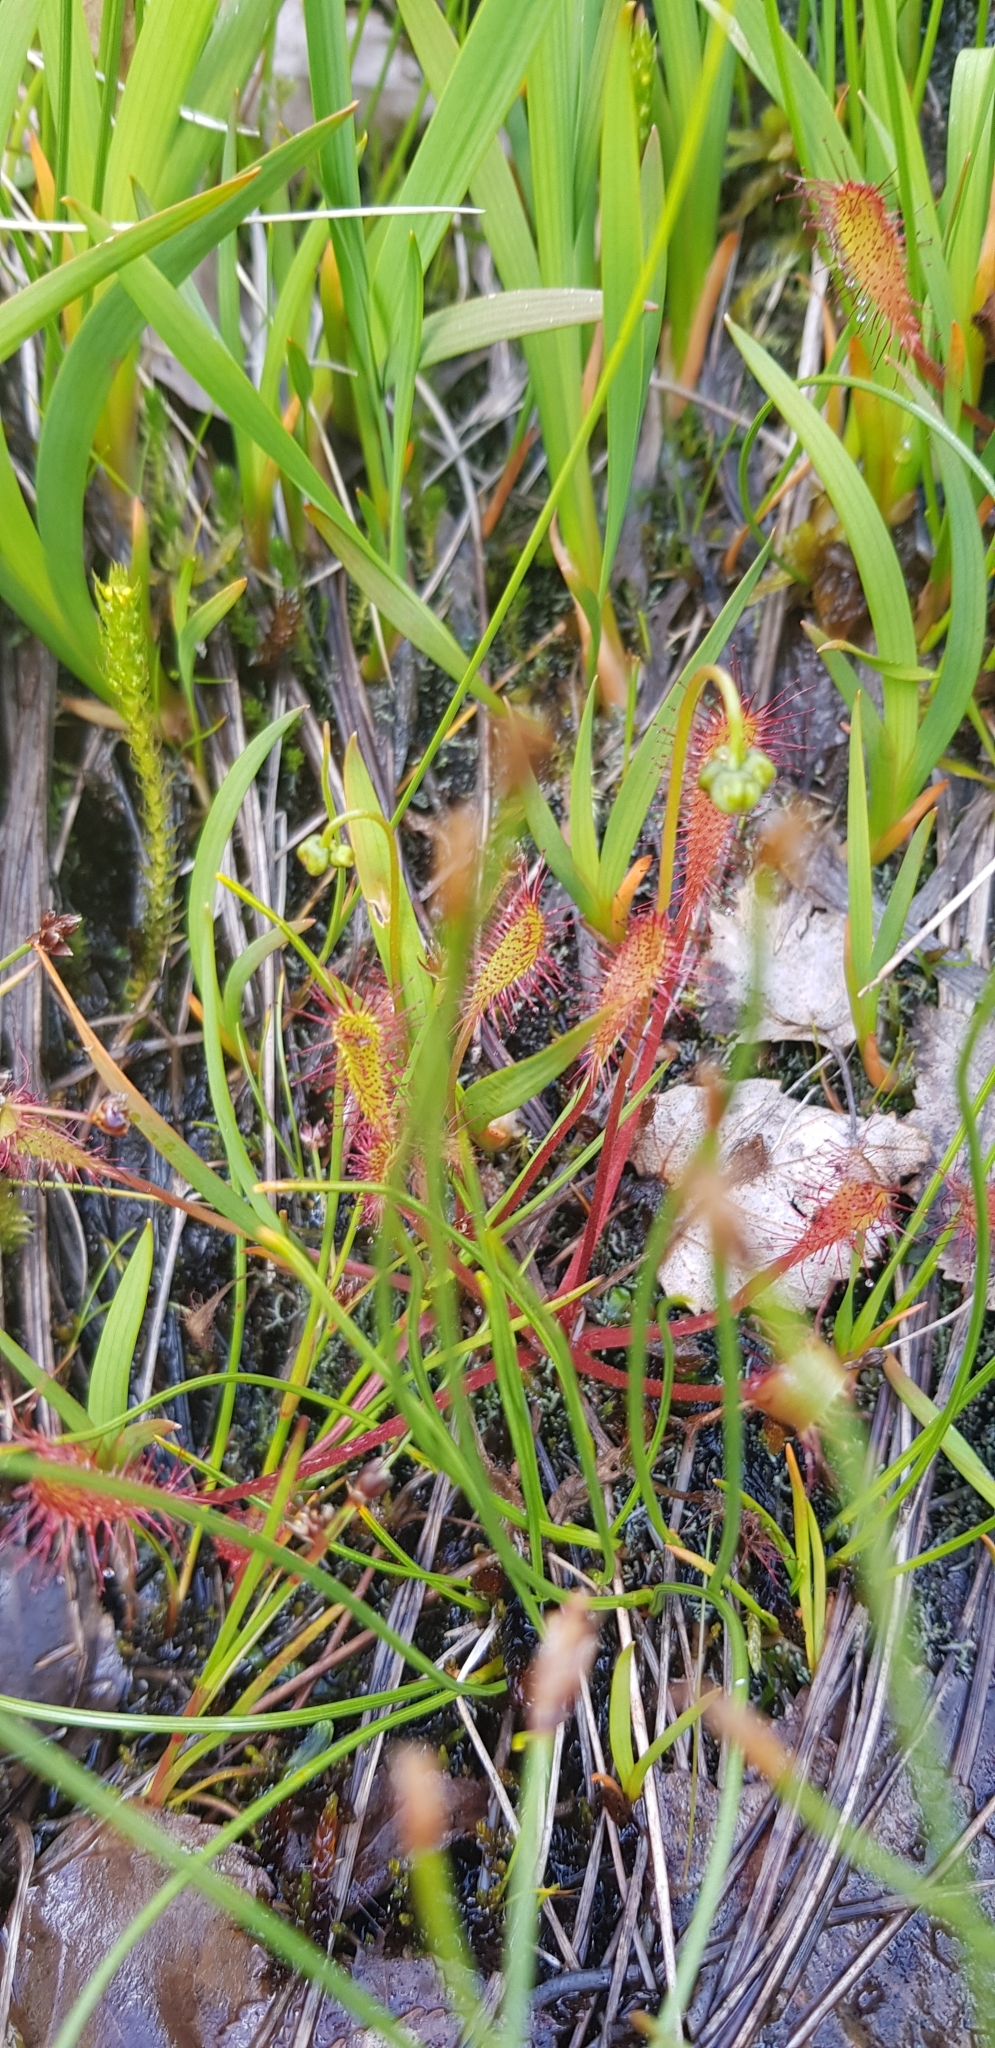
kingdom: Plantae
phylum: Tracheophyta
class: Magnoliopsida
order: Caryophyllales
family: Droseraceae
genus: Drosera
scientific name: Drosera anglica
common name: Great sundew
